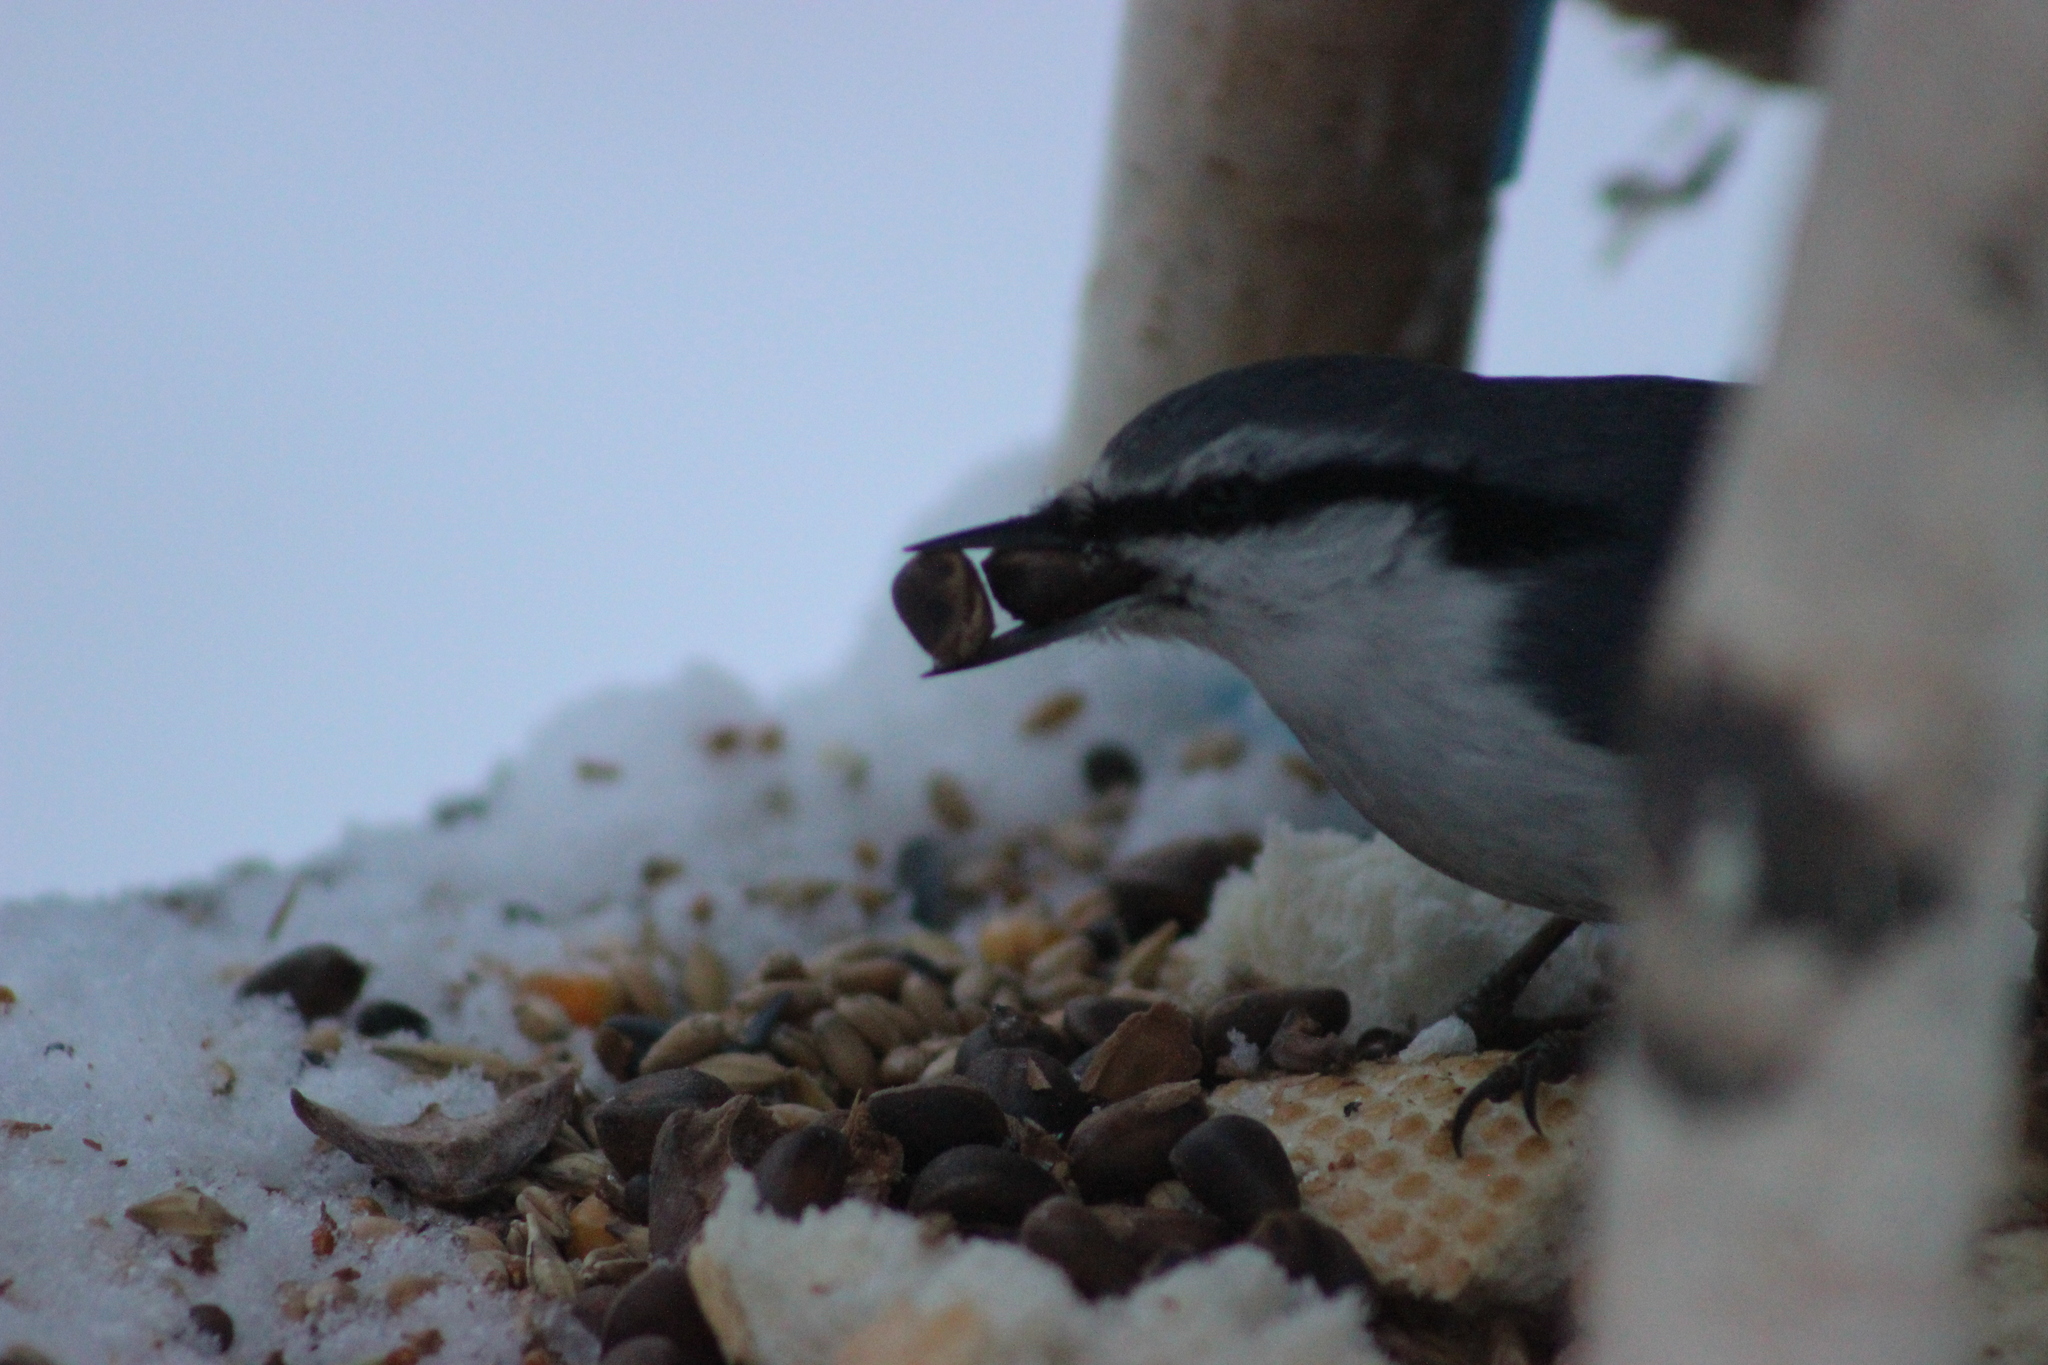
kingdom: Animalia
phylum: Chordata
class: Aves
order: Passeriformes
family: Sittidae
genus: Sitta
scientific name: Sitta europaea
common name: Eurasian nuthatch
